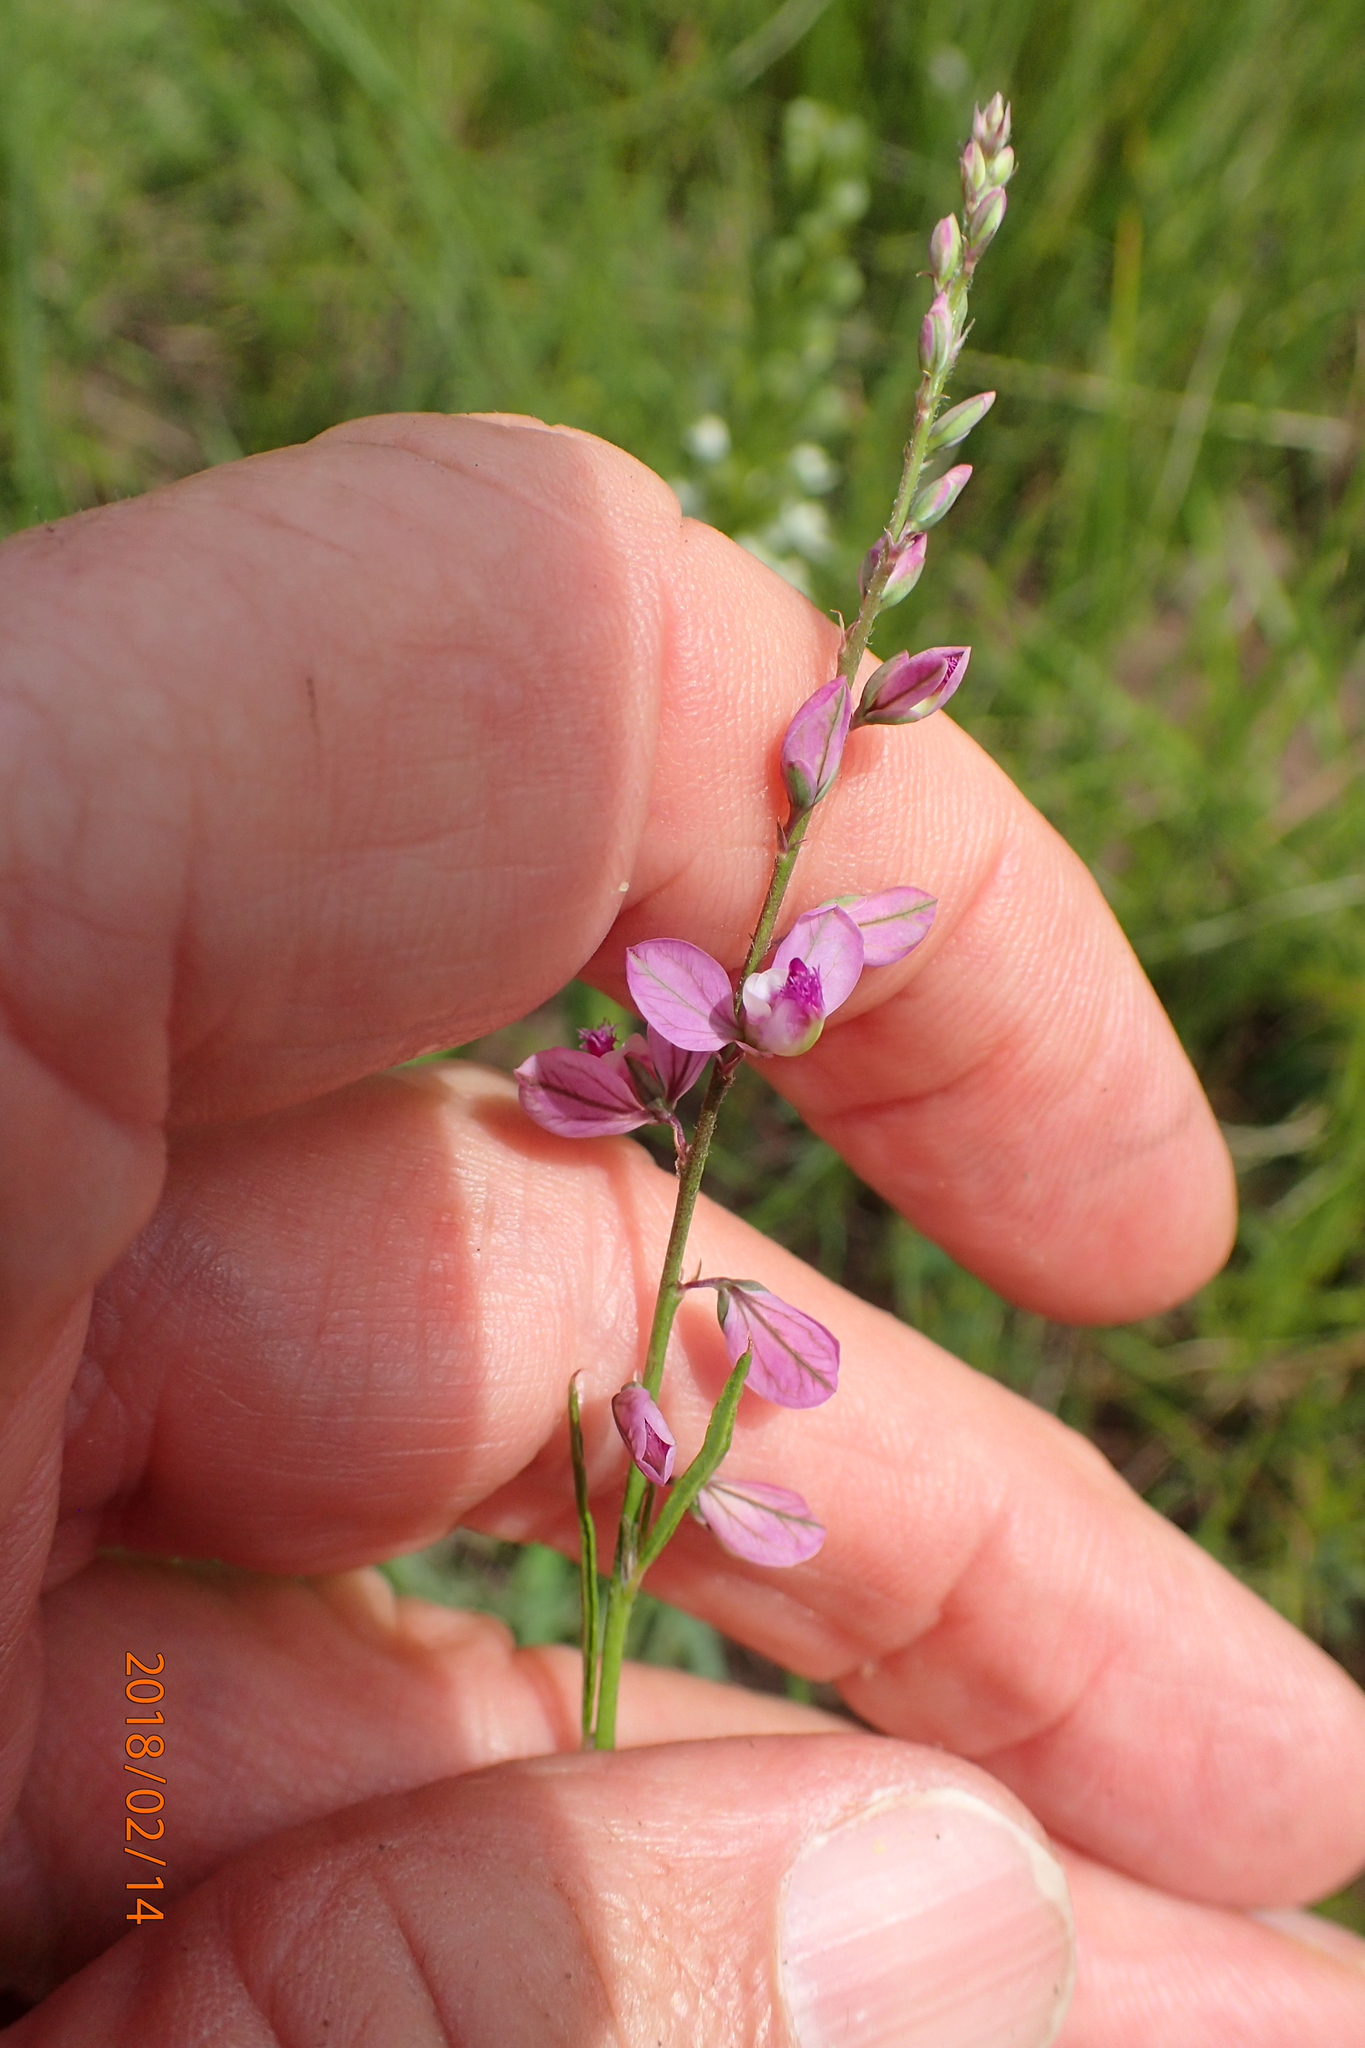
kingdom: Plantae
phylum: Tracheophyta
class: Magnoliopsida
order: Fabales
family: Polygalaceae
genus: Polygala
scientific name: Polygala hottentotta
